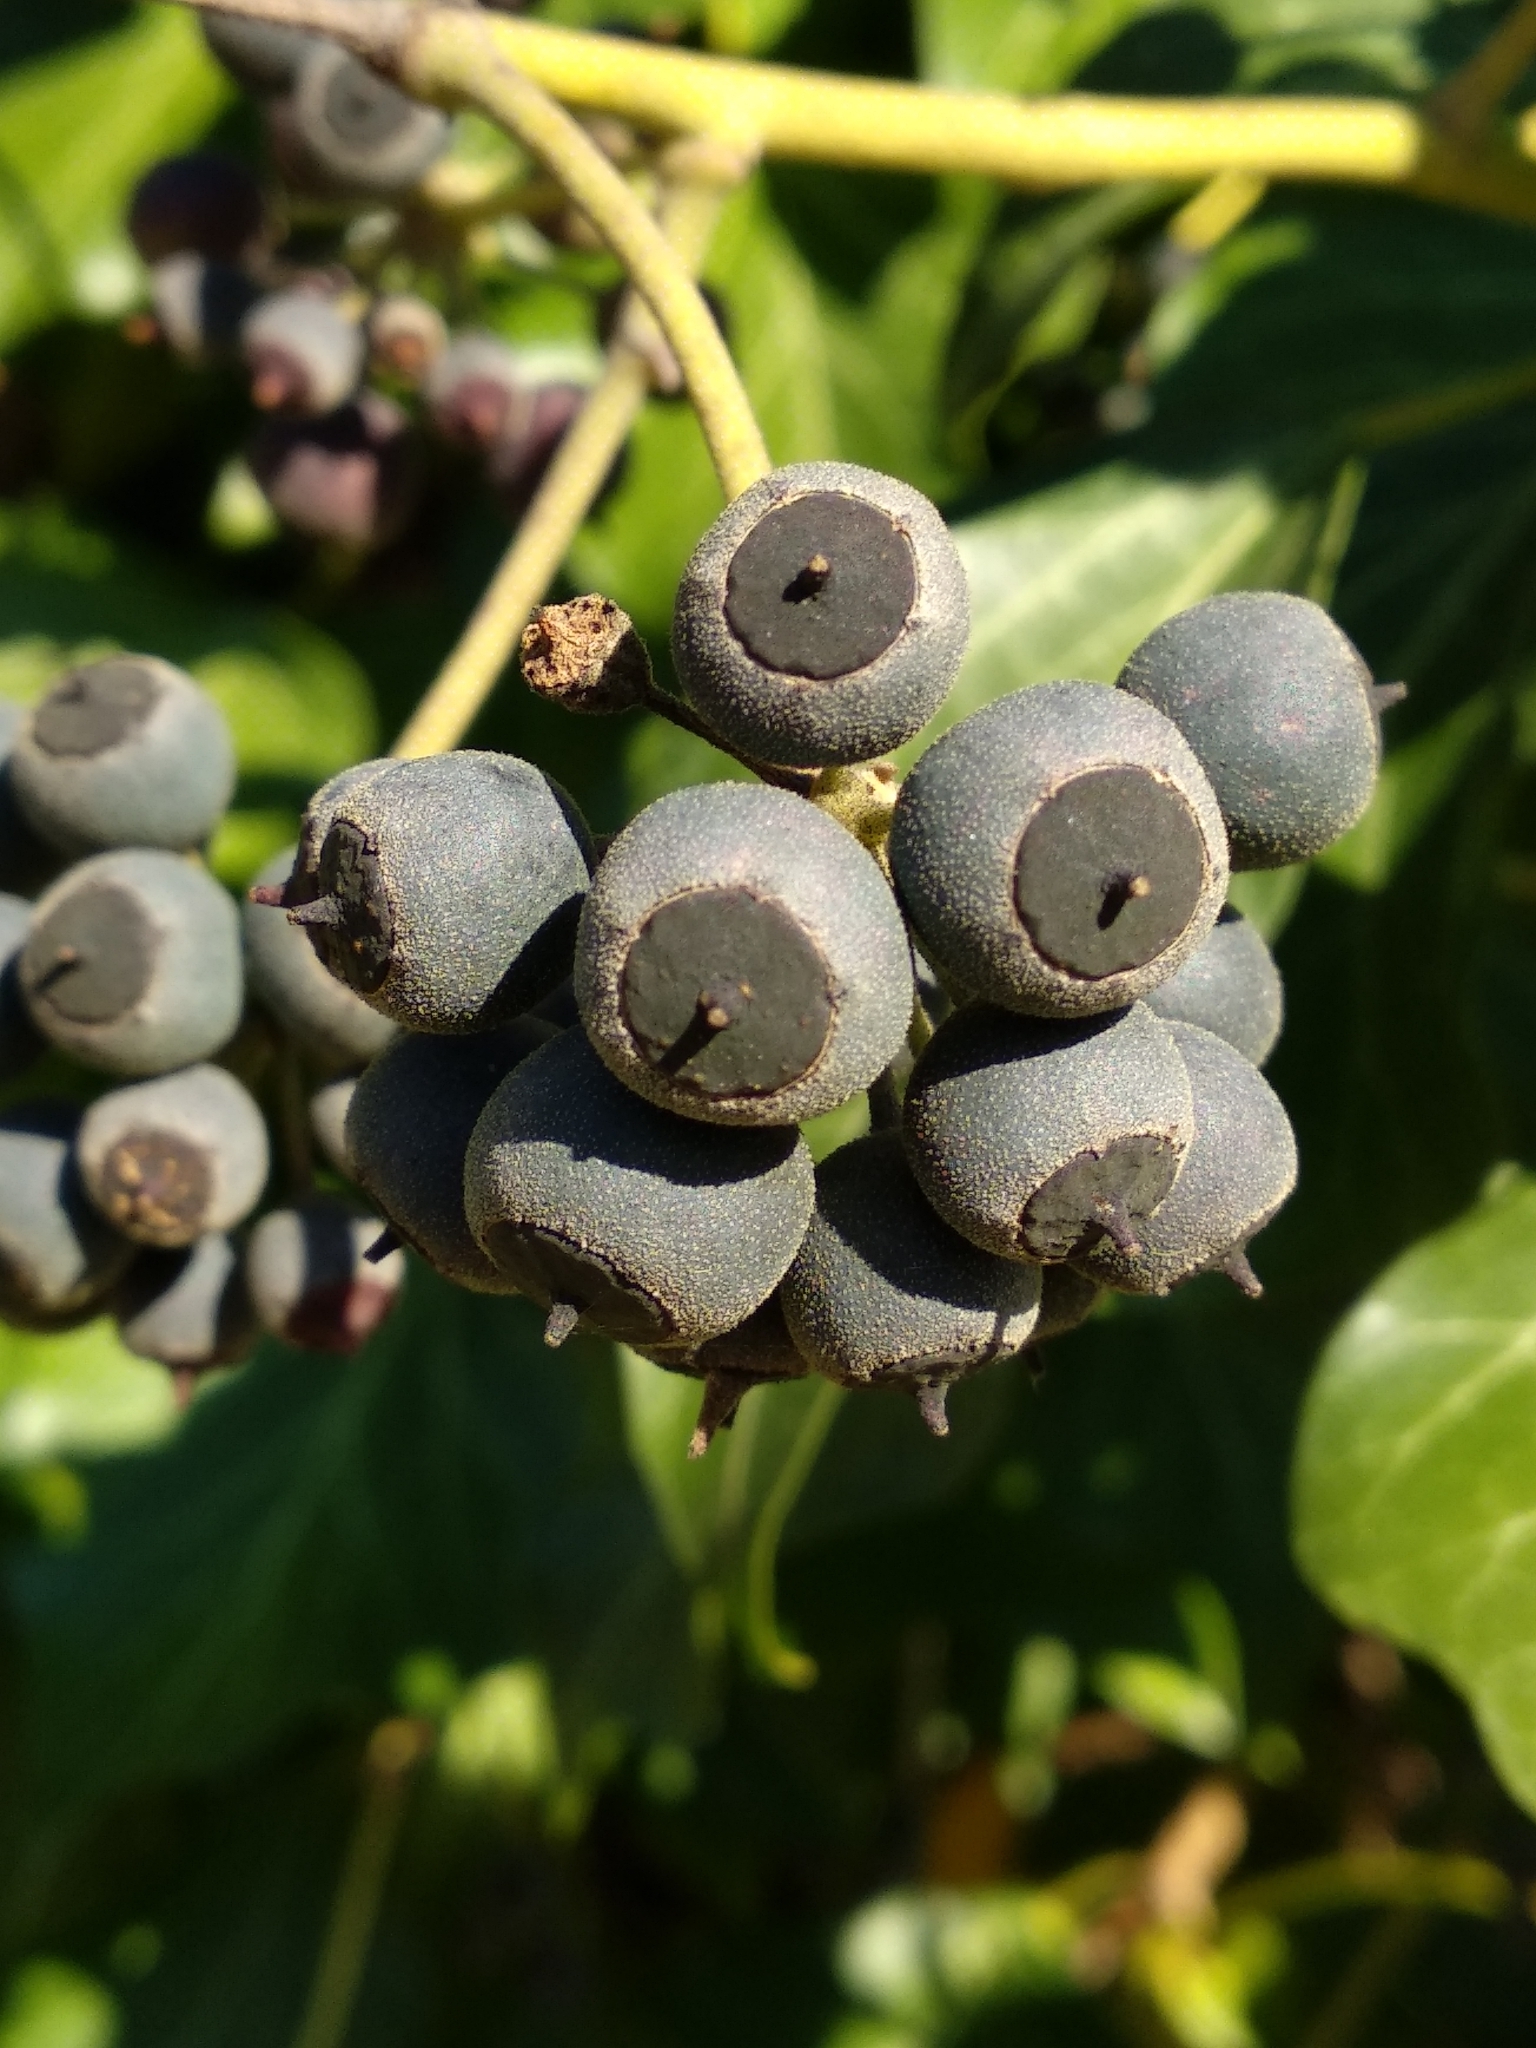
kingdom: Plantae
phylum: Tracheophyta
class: Magnoliopsida
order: Apiales
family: Araliaceae
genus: Hedera
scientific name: Hedera helix
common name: Ivy
